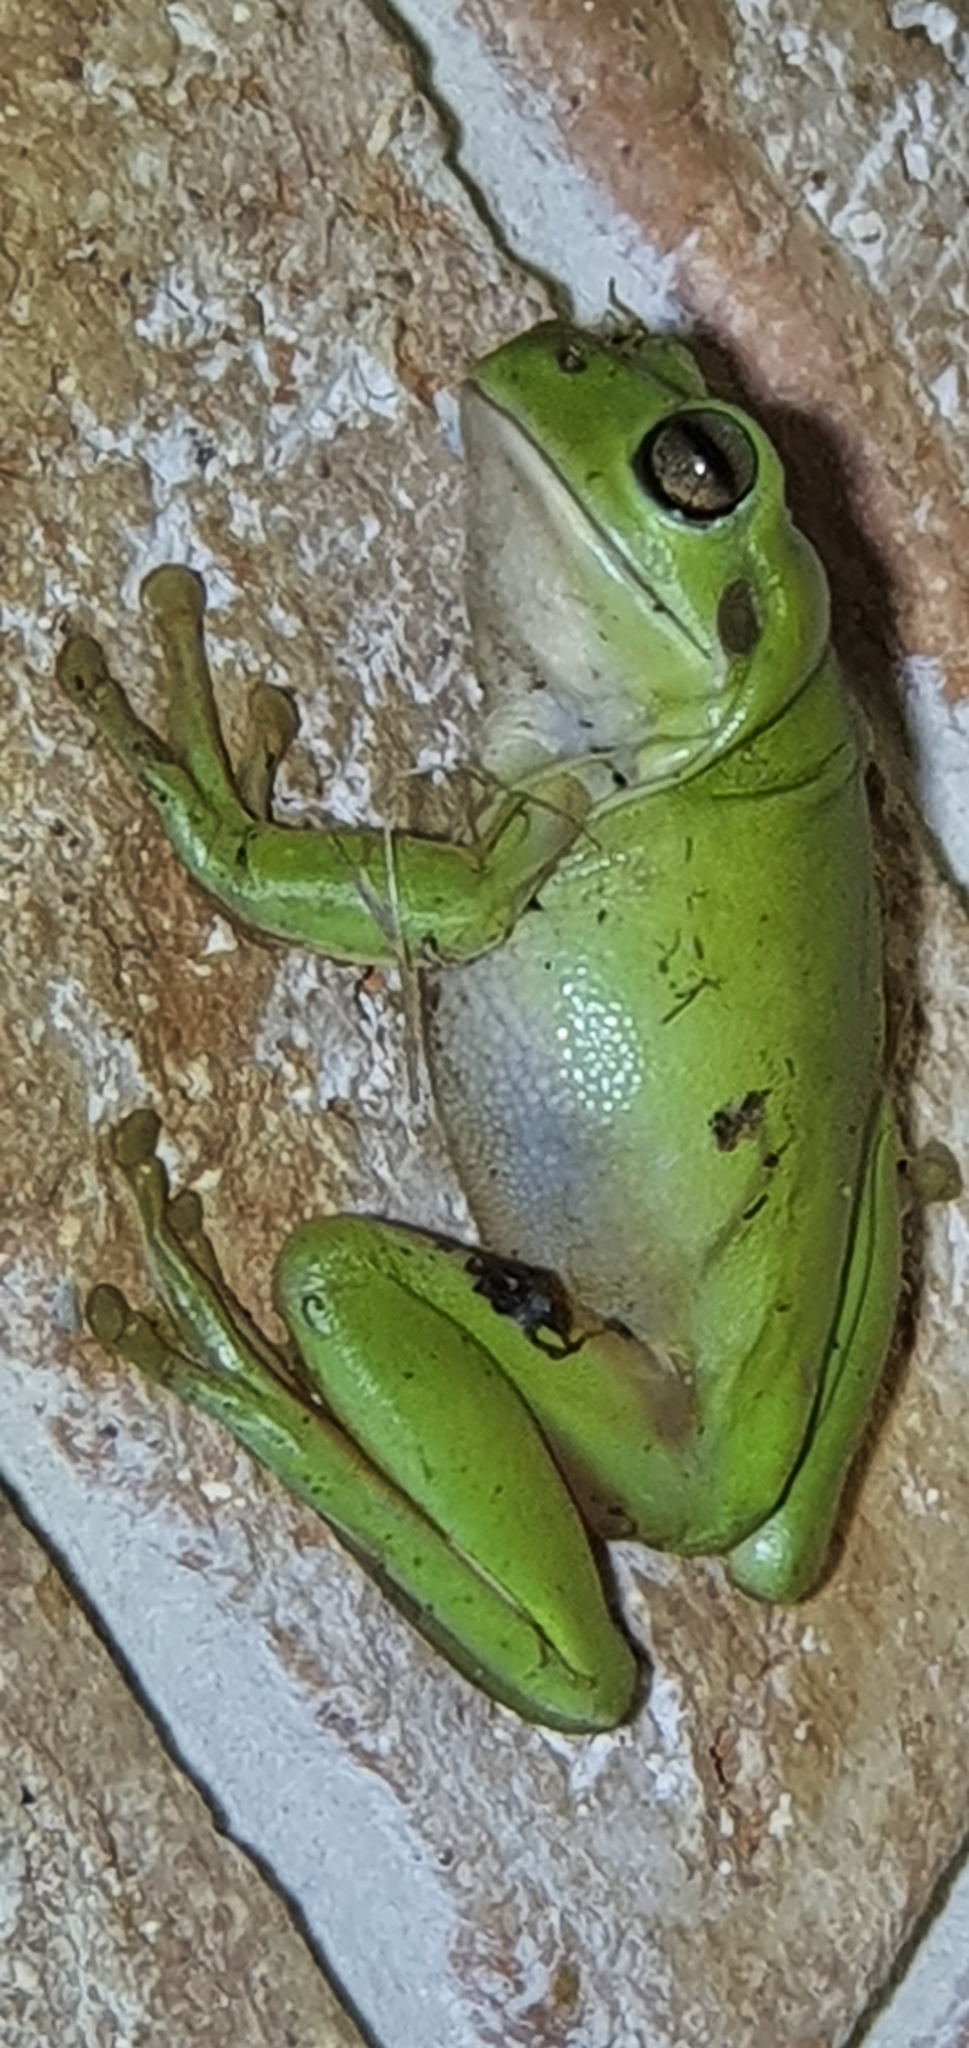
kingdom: Animalia
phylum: Chordata
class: Amphibia
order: Anura
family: Pelodryadidae
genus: Ranoidea
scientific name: Ranoidea caerulea
